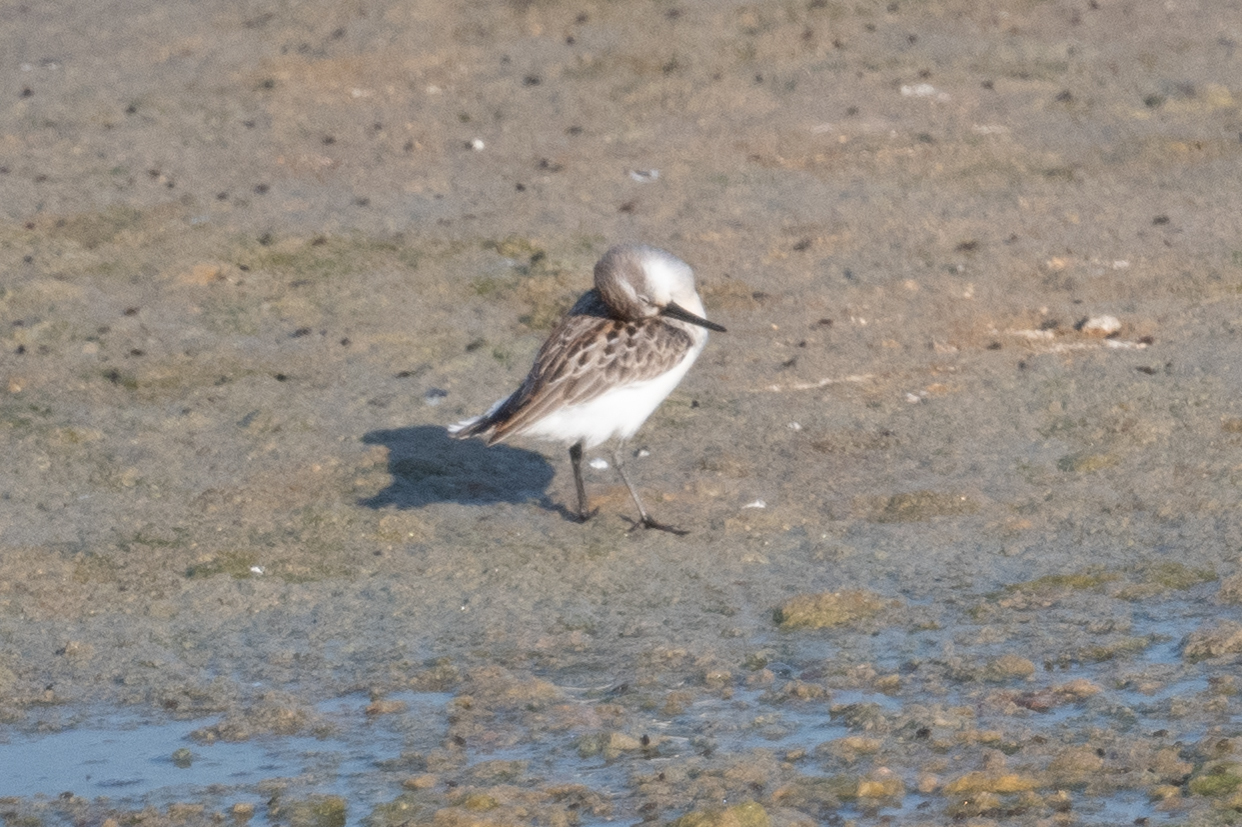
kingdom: Animalia
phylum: Chordata
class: Aves
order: Charadriiformes
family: Scolopacidae
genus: Calidris
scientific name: Calidris mauri
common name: Western sandpiper
